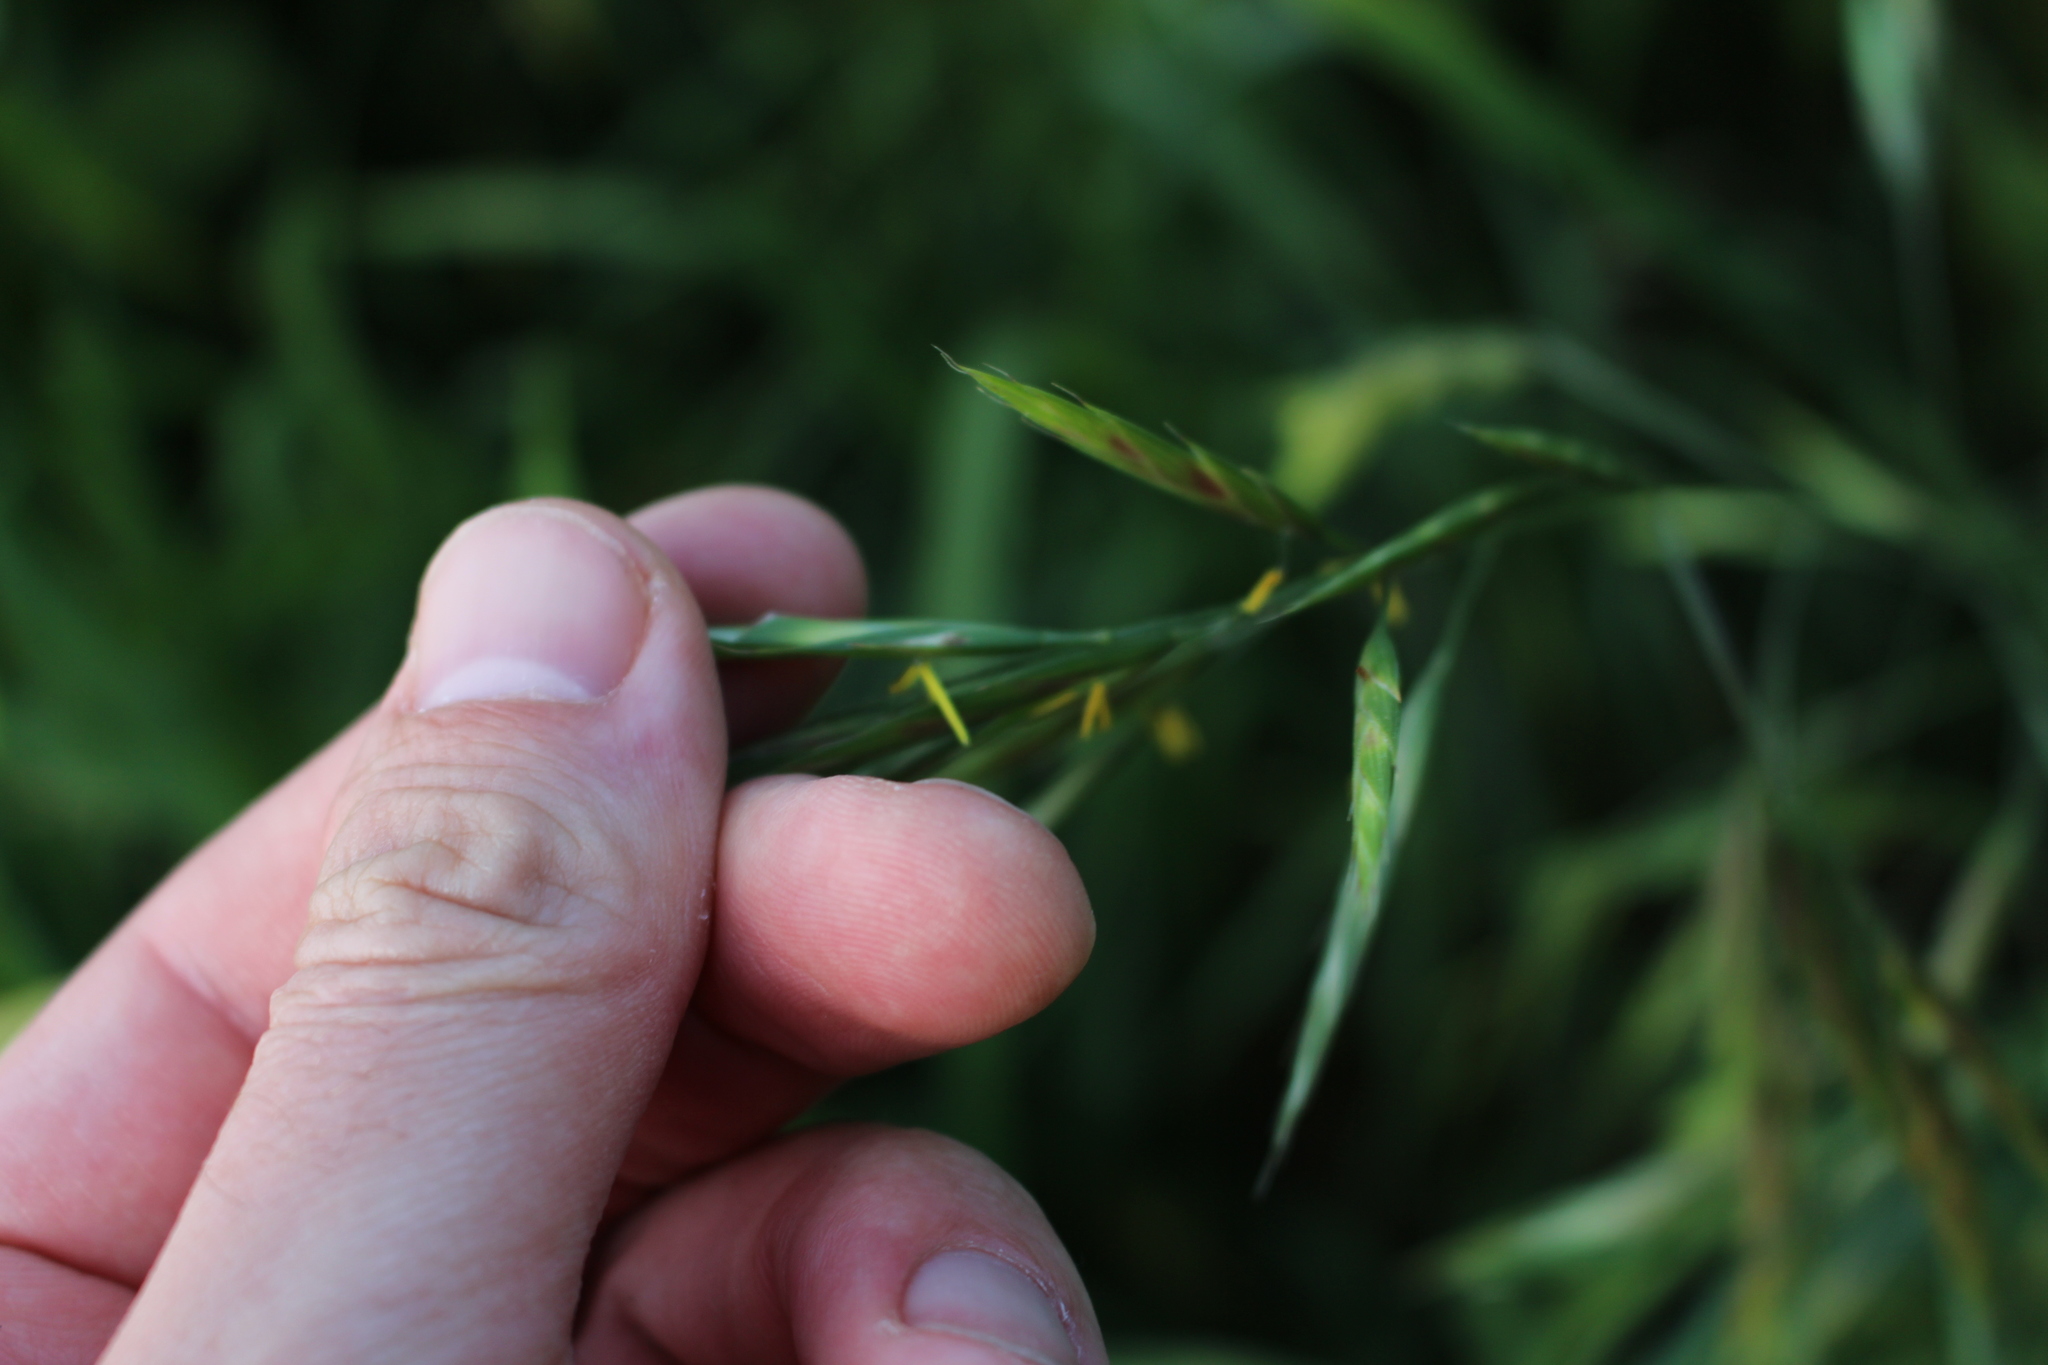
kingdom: Plantae
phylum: Tracheophyta
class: Liliopsida
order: Poales
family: Poaceae
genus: Bromus
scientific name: Bromus lithobius
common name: Chilean brome
